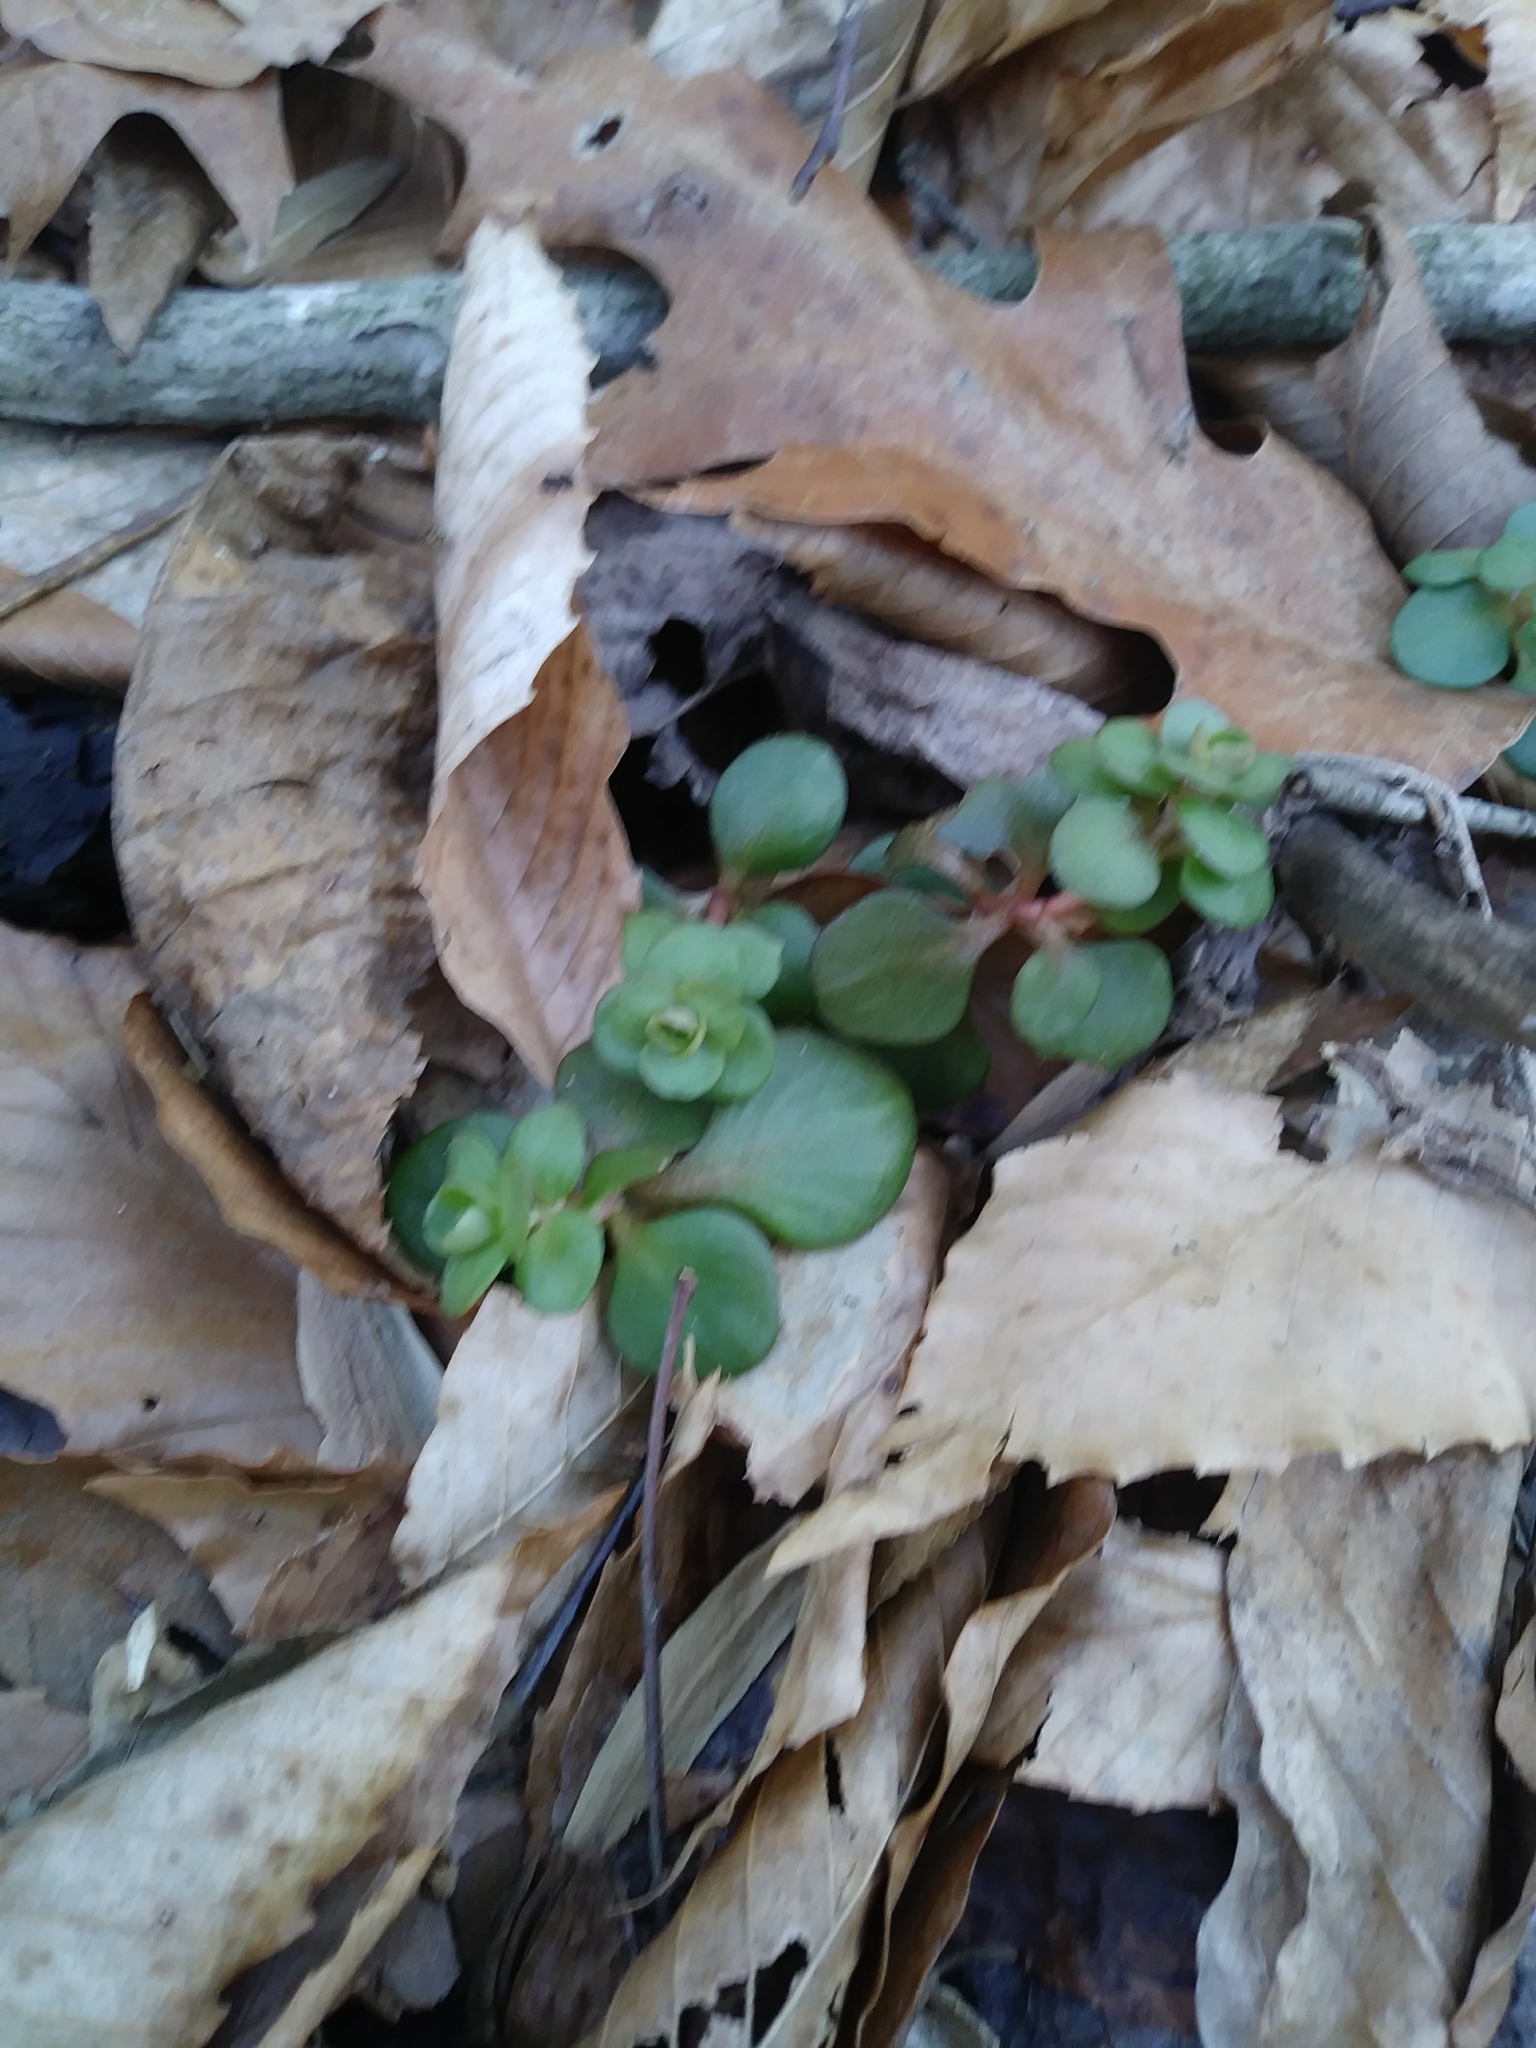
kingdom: Plantae
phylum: Tracheophyta
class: Magnoliopsida
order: Saxifragales
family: Crassulaceae
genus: Sedum
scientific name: Sedum ternatum
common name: Wild stonecrop
